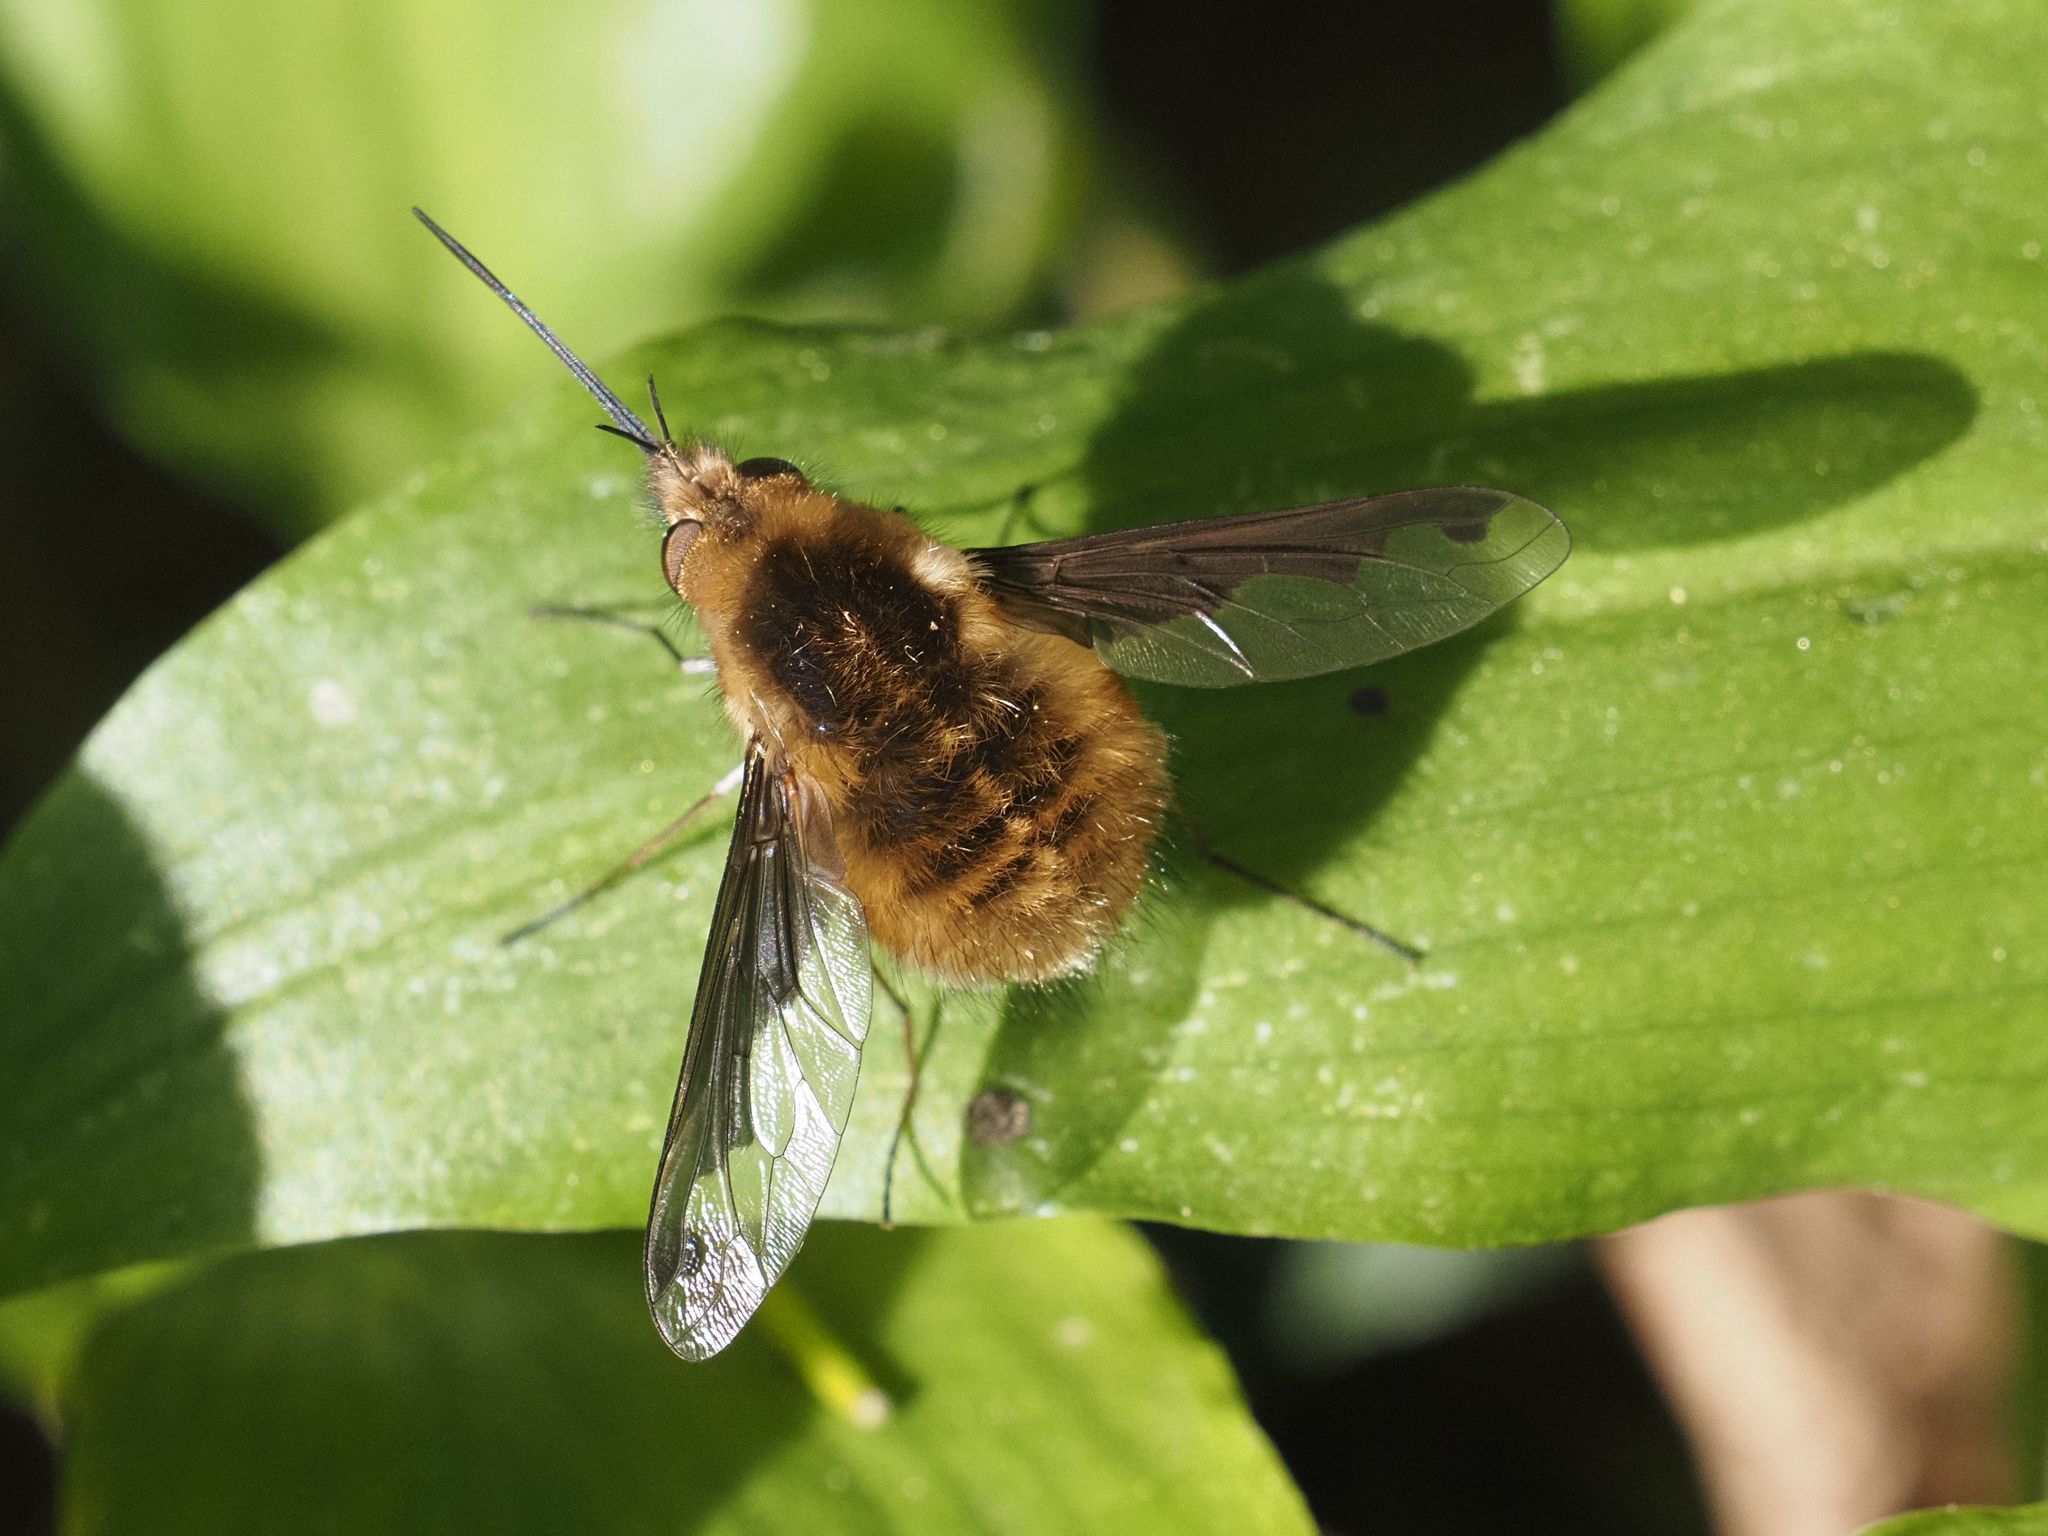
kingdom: Animalia
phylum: Arthropoda
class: Insecta
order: Diptera
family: Bombyliidae
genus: Bombylius
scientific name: Bombylius major
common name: Bee fly
